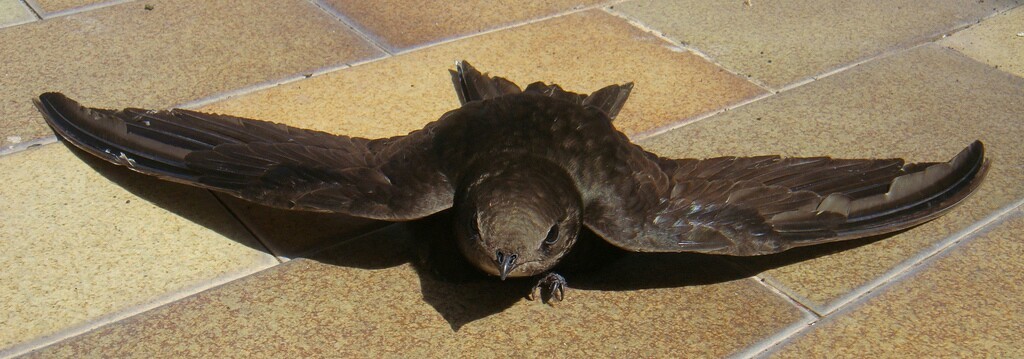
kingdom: Animalia
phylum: Chordata
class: Aves
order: Apodiformes
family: Apodidae
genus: Apus
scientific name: Apus apus
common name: Common swift
